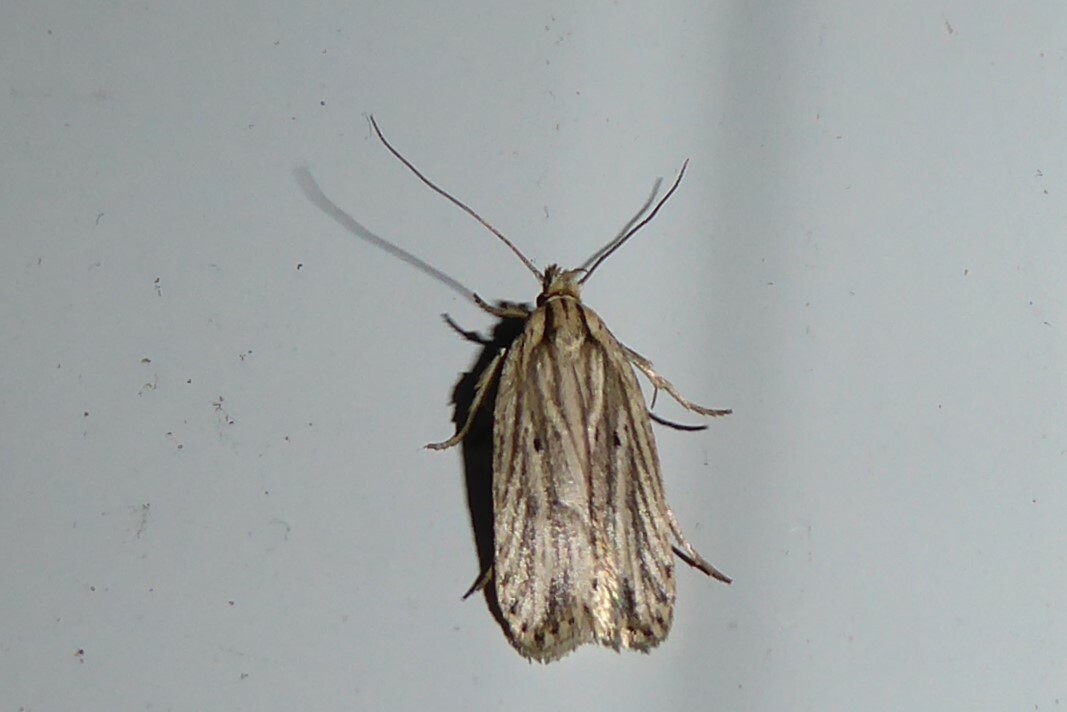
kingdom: Animalia
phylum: Arthropoda
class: Insecta
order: Lepidoptera
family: Depressariidae
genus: Agonopterix
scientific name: Agonopterix
